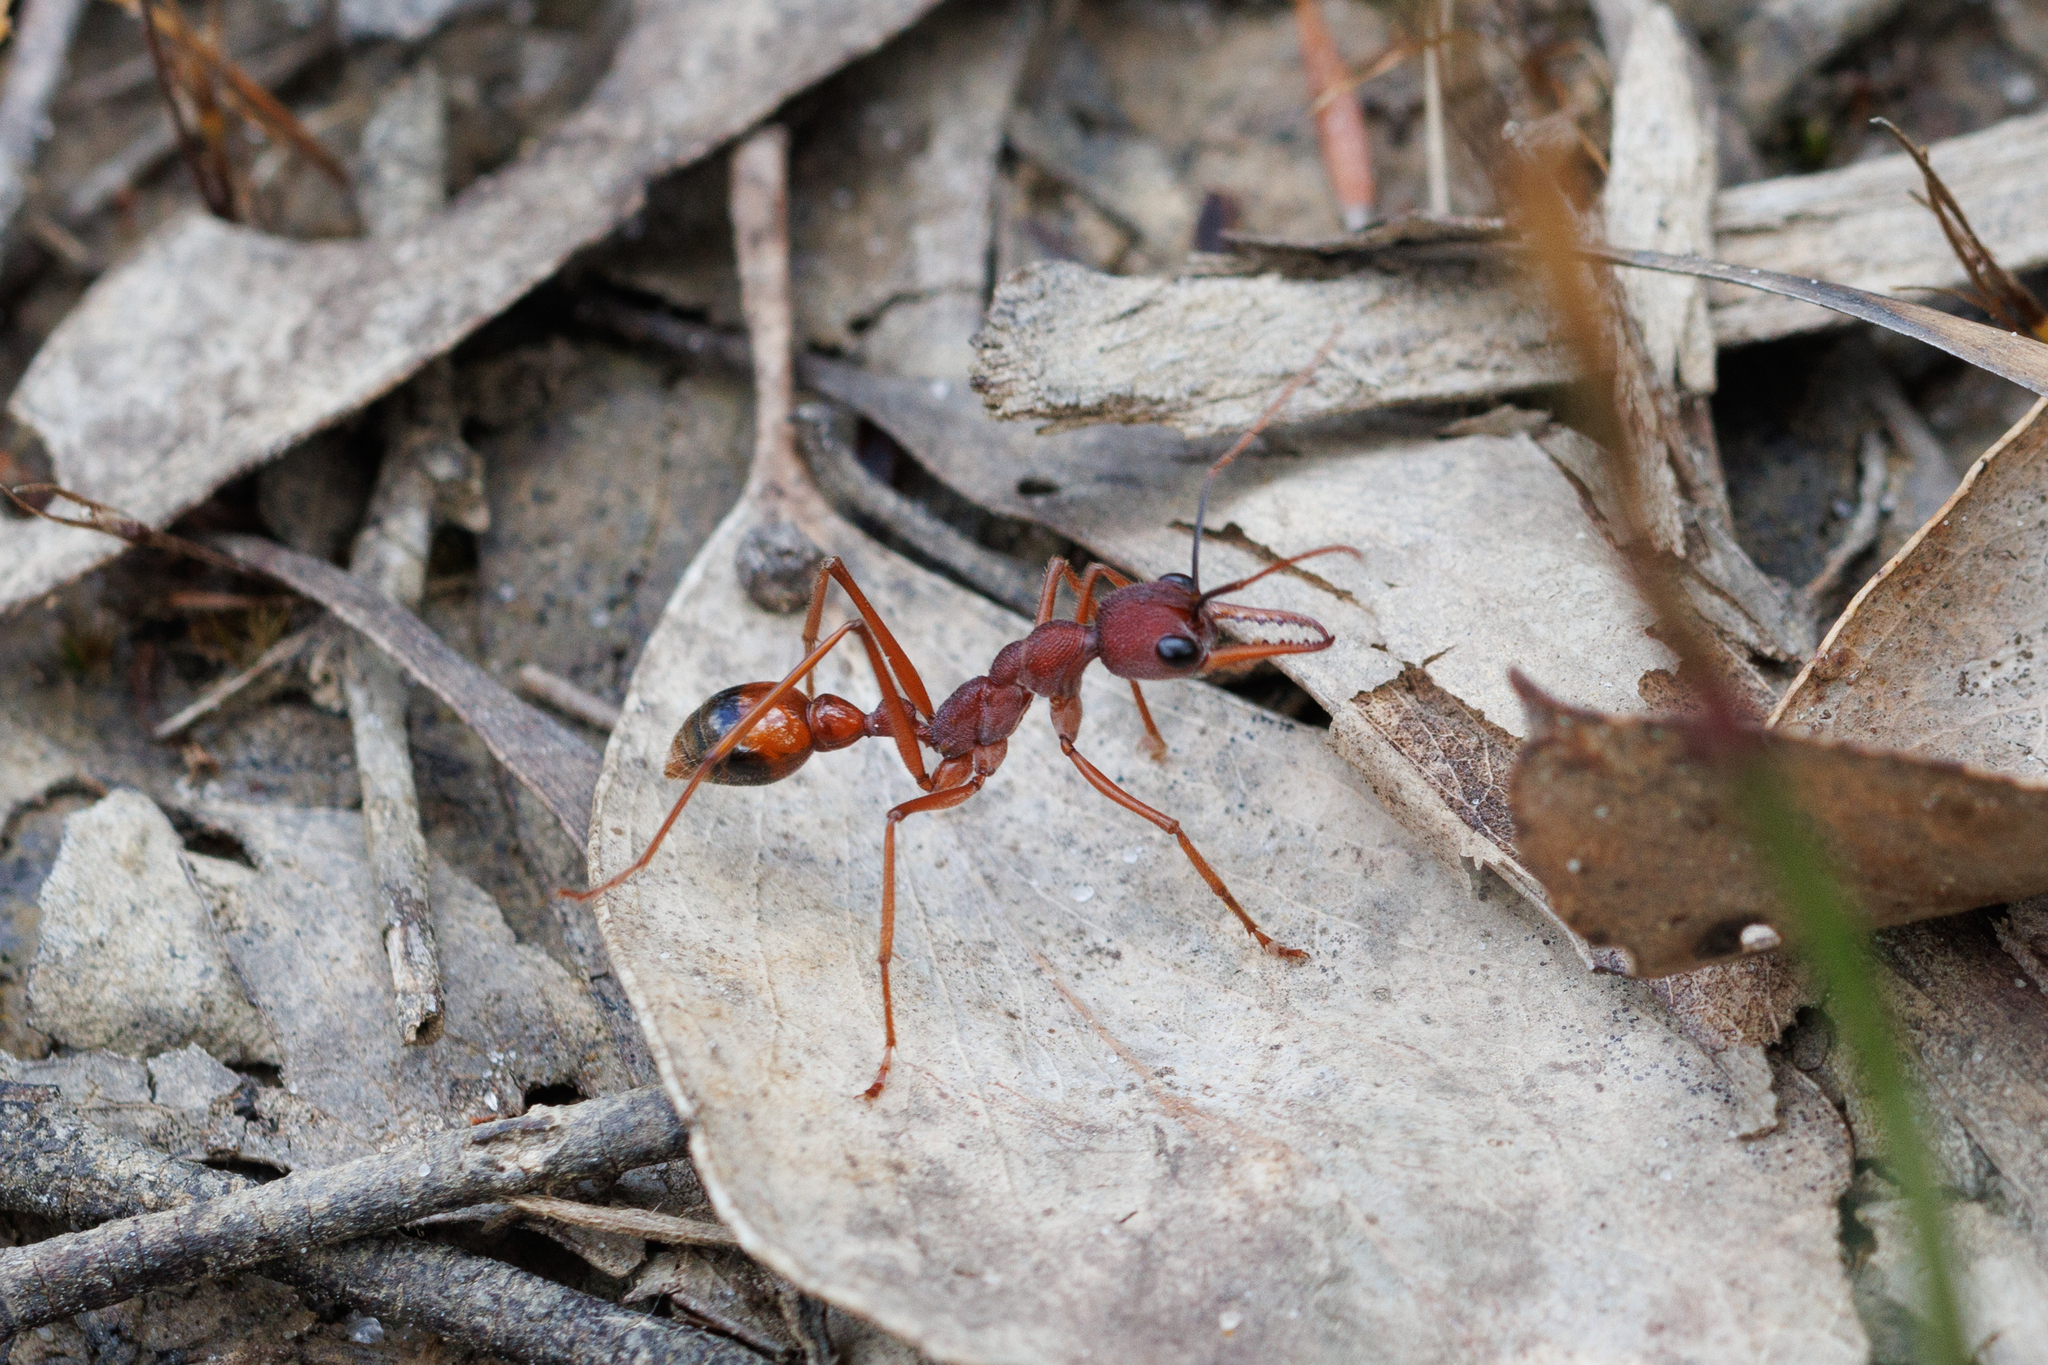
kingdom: Animalia
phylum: Arthropoda
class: Insecta
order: Hymenoptera
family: Formicidae
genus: Myrmecia
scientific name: Myrmecia nigriscapa
